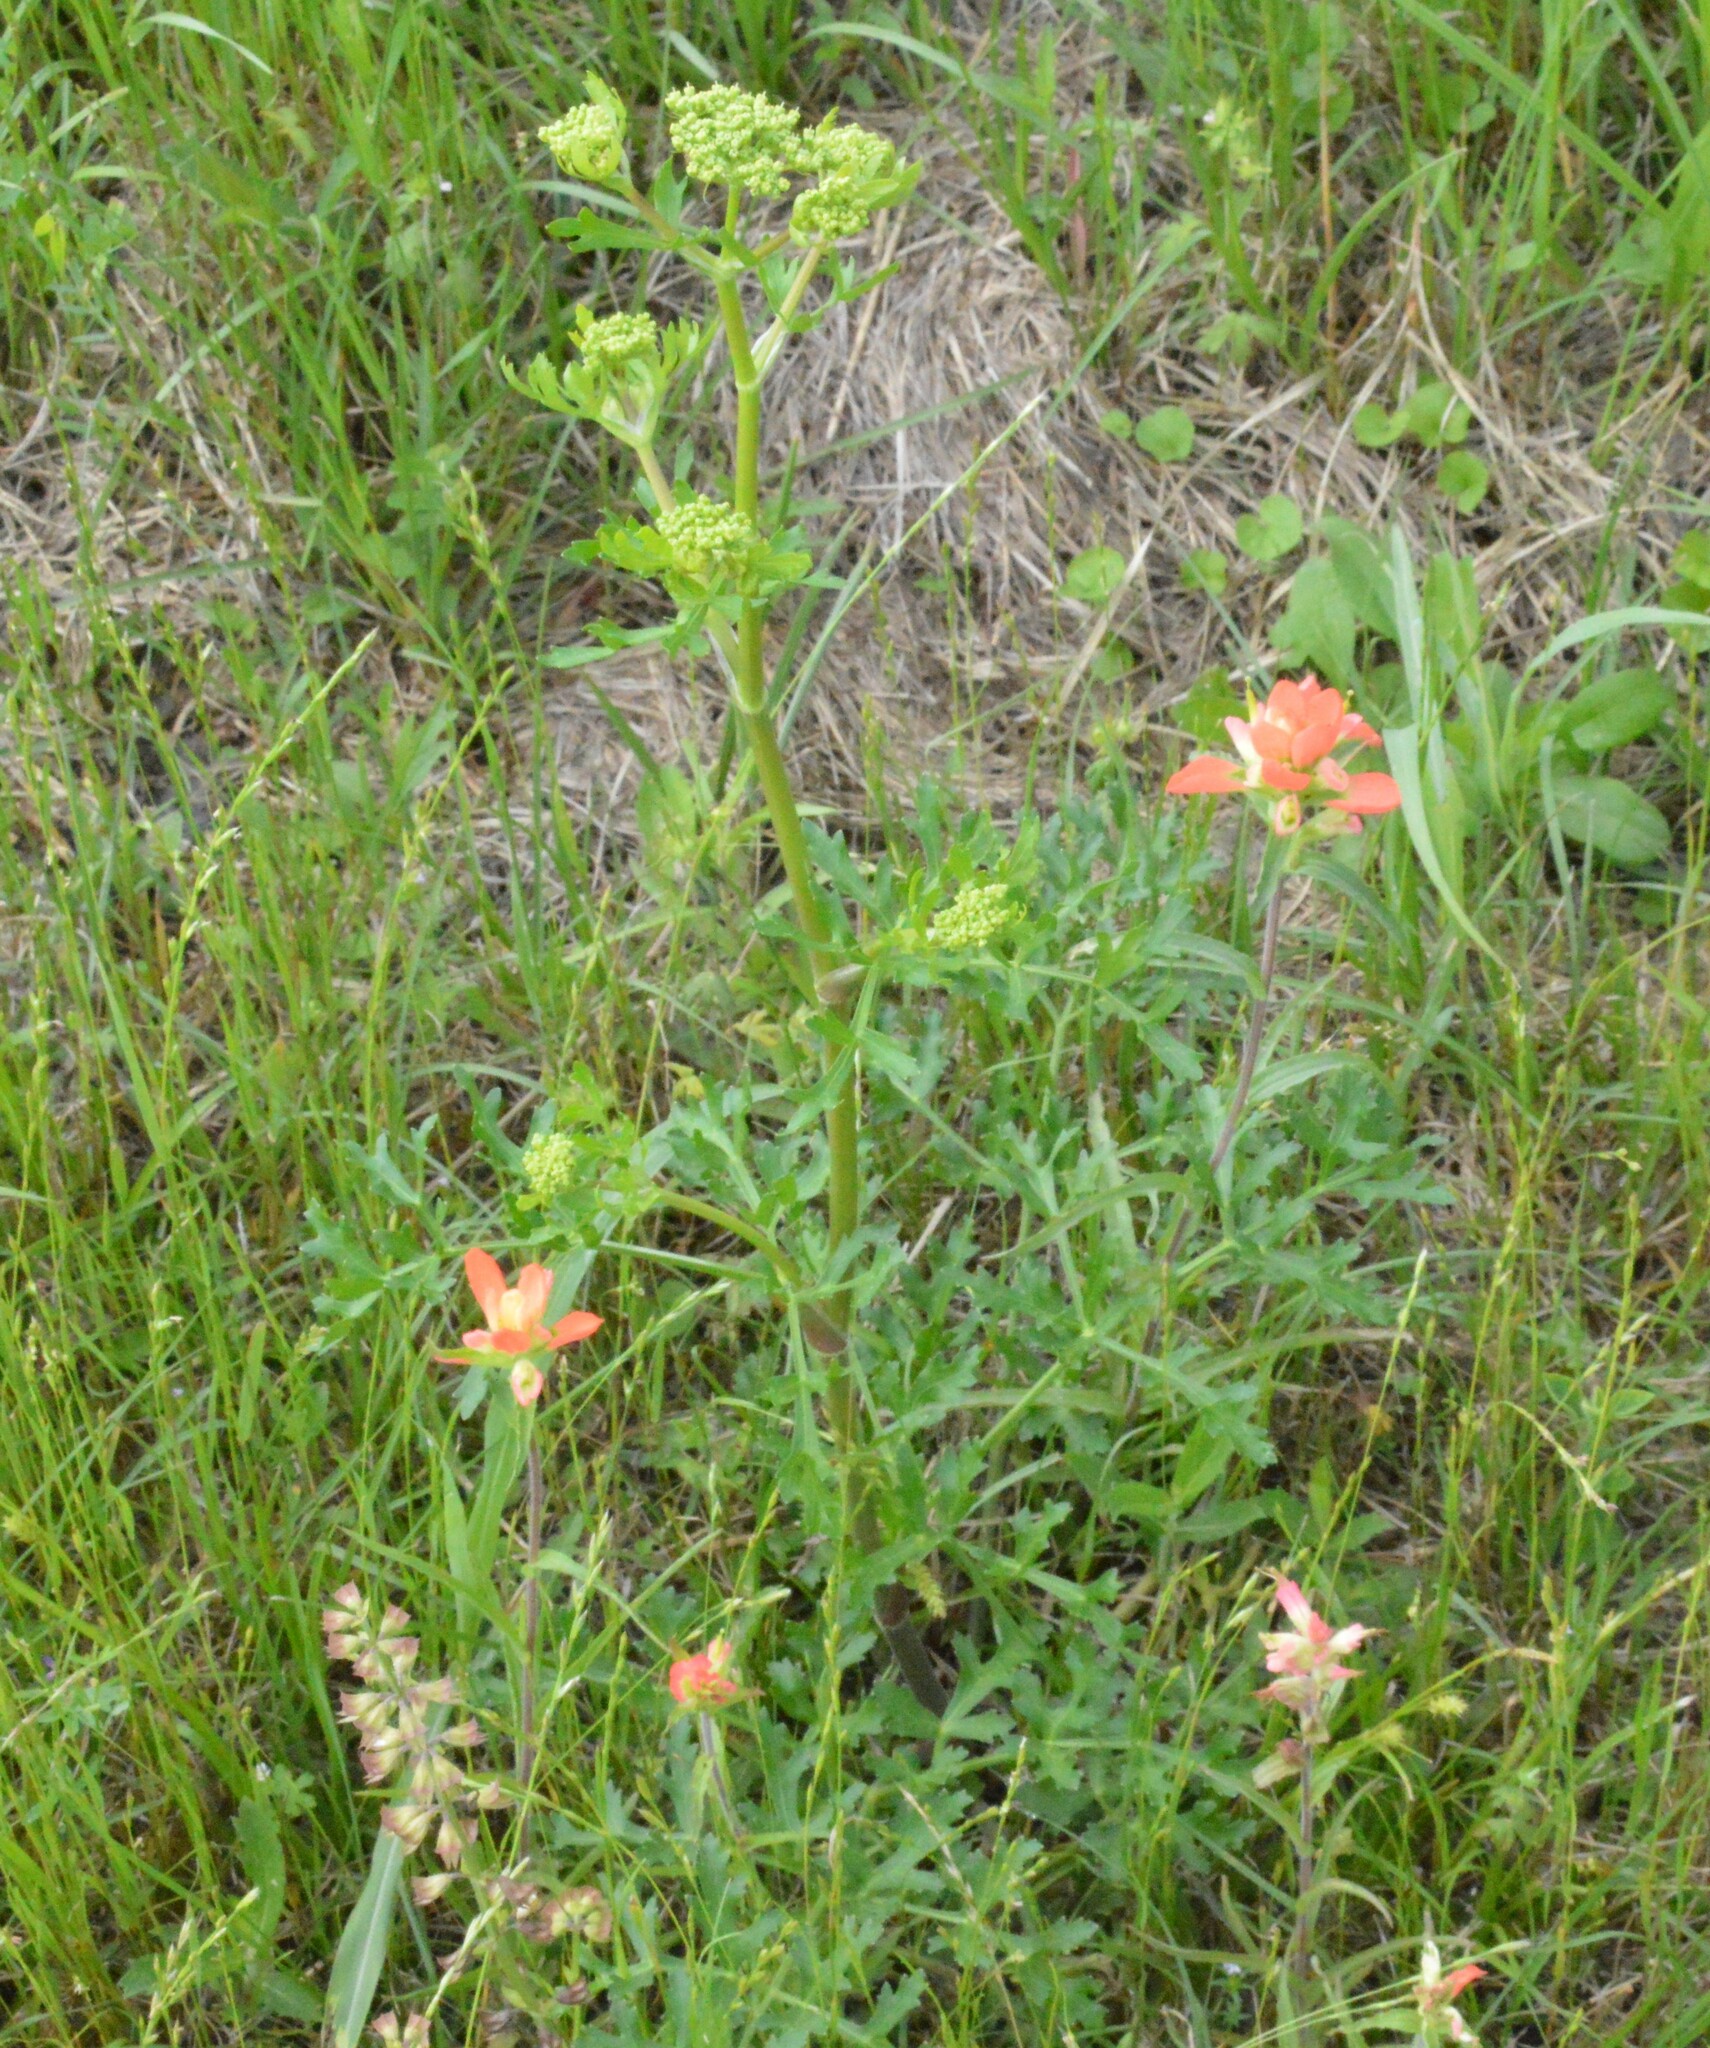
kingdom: Plantae
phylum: Tracheophyta
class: Magnoliopsida
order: Apiales
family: Apiaceae
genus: Polytaenia
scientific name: Polytaenia texana
